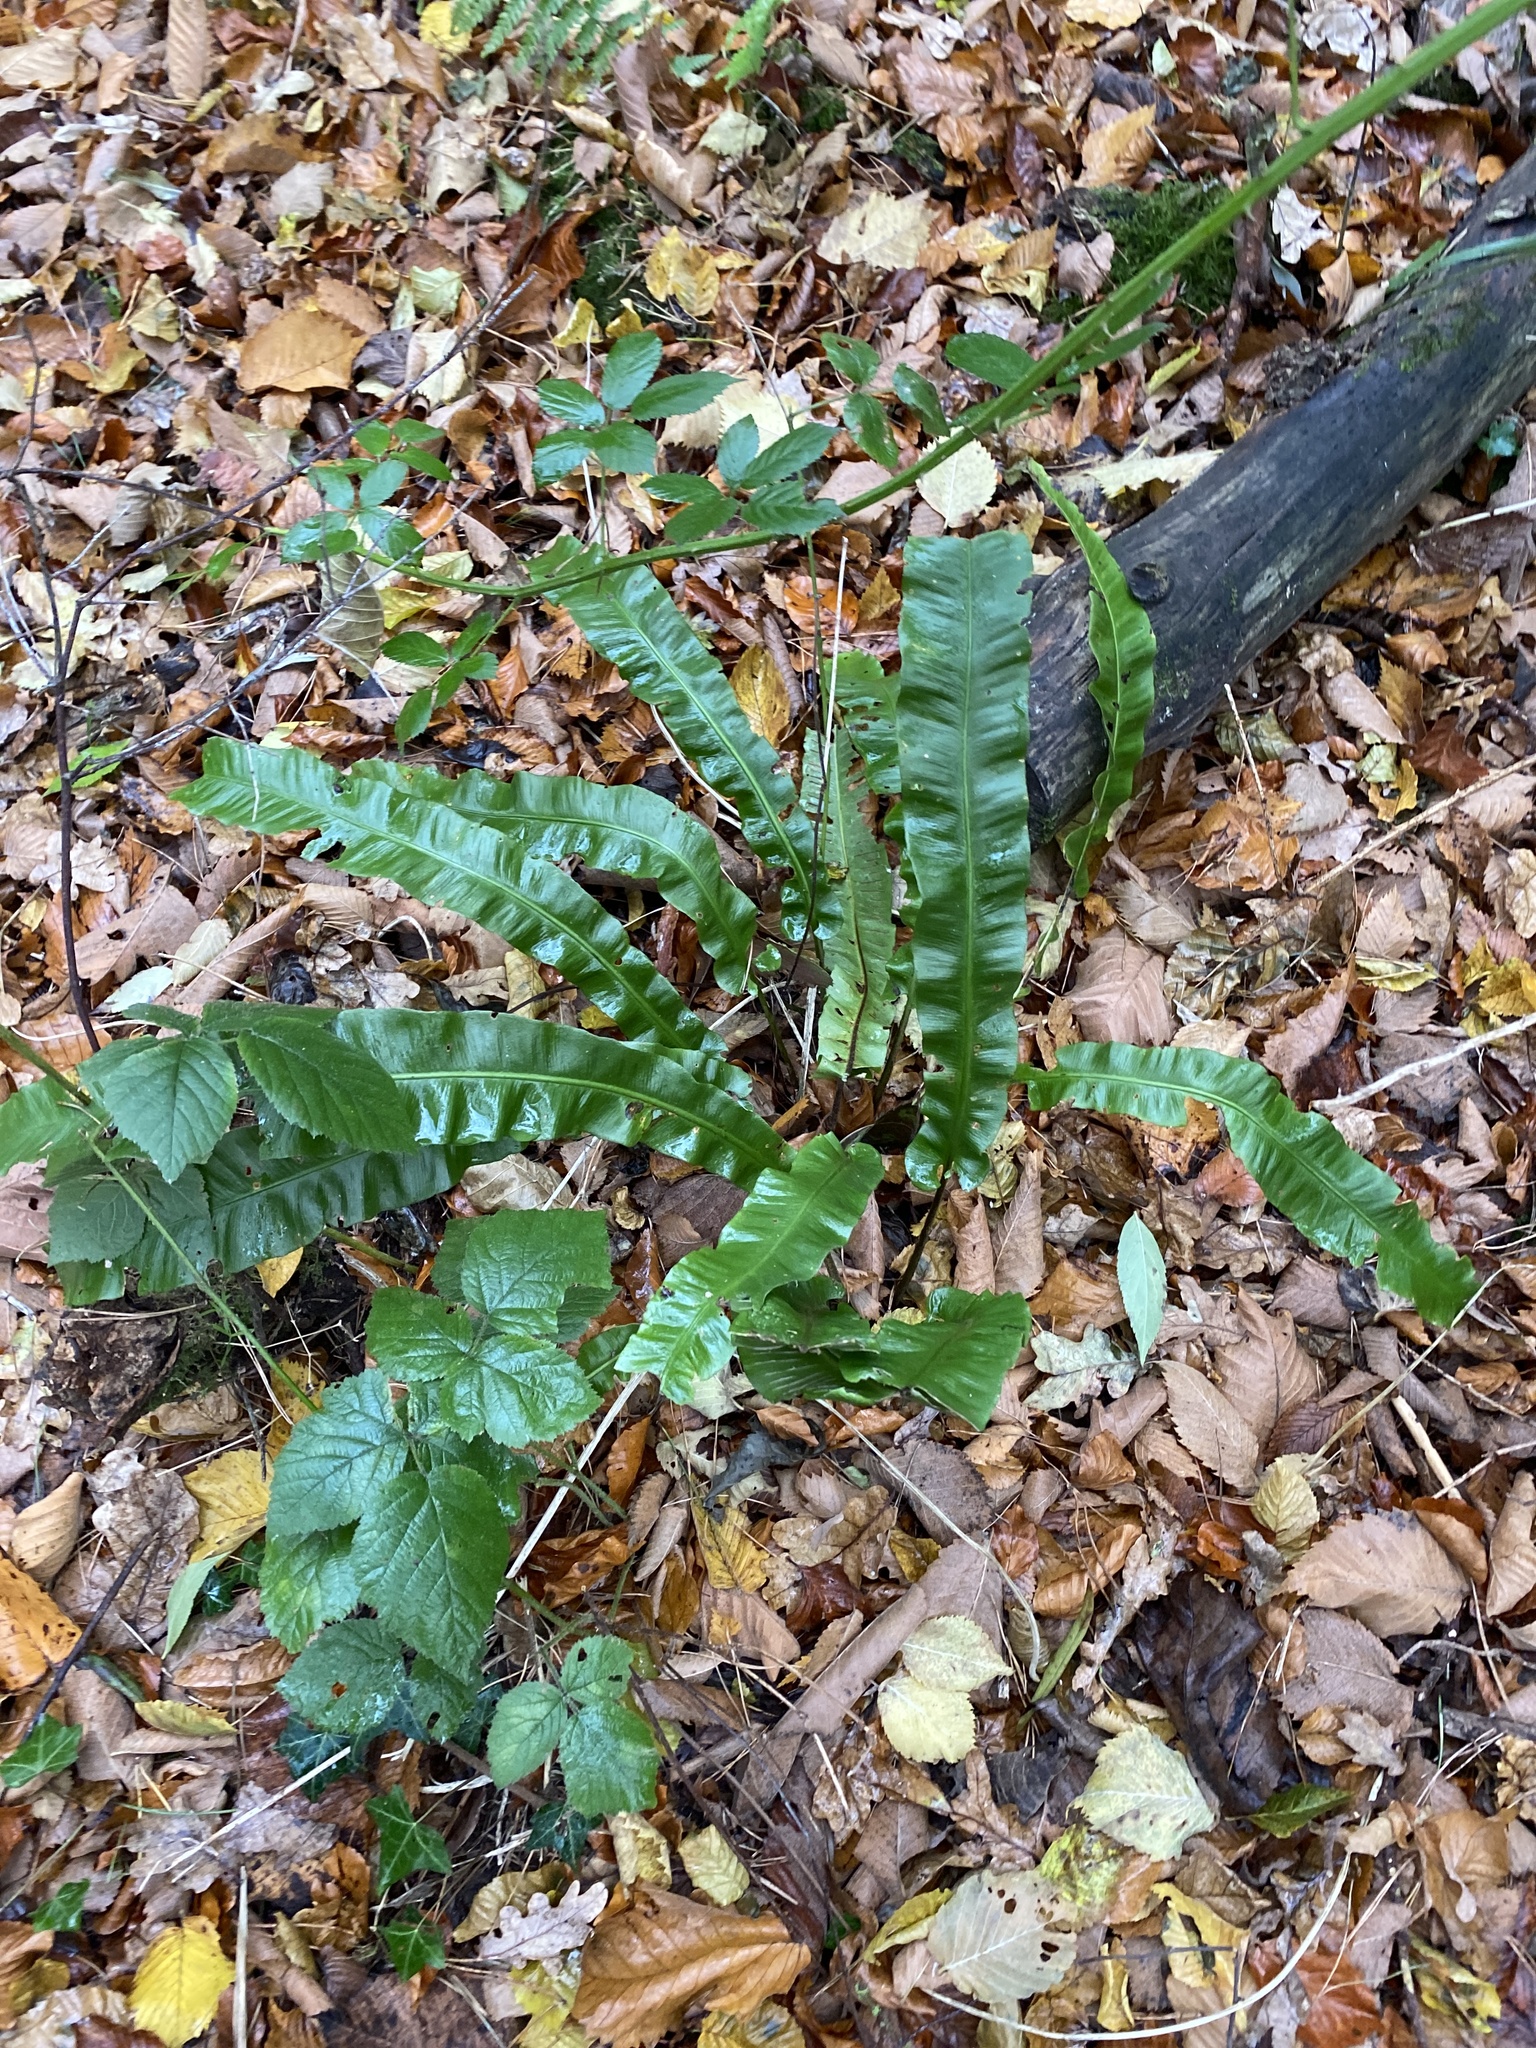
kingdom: Plantae
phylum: Tracheophyta
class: Polypodiopsida
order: Polypodiales
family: Aspleniaceae
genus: Asplenium
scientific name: Asplenium scolopendrium
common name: Hart's-tongue fern
